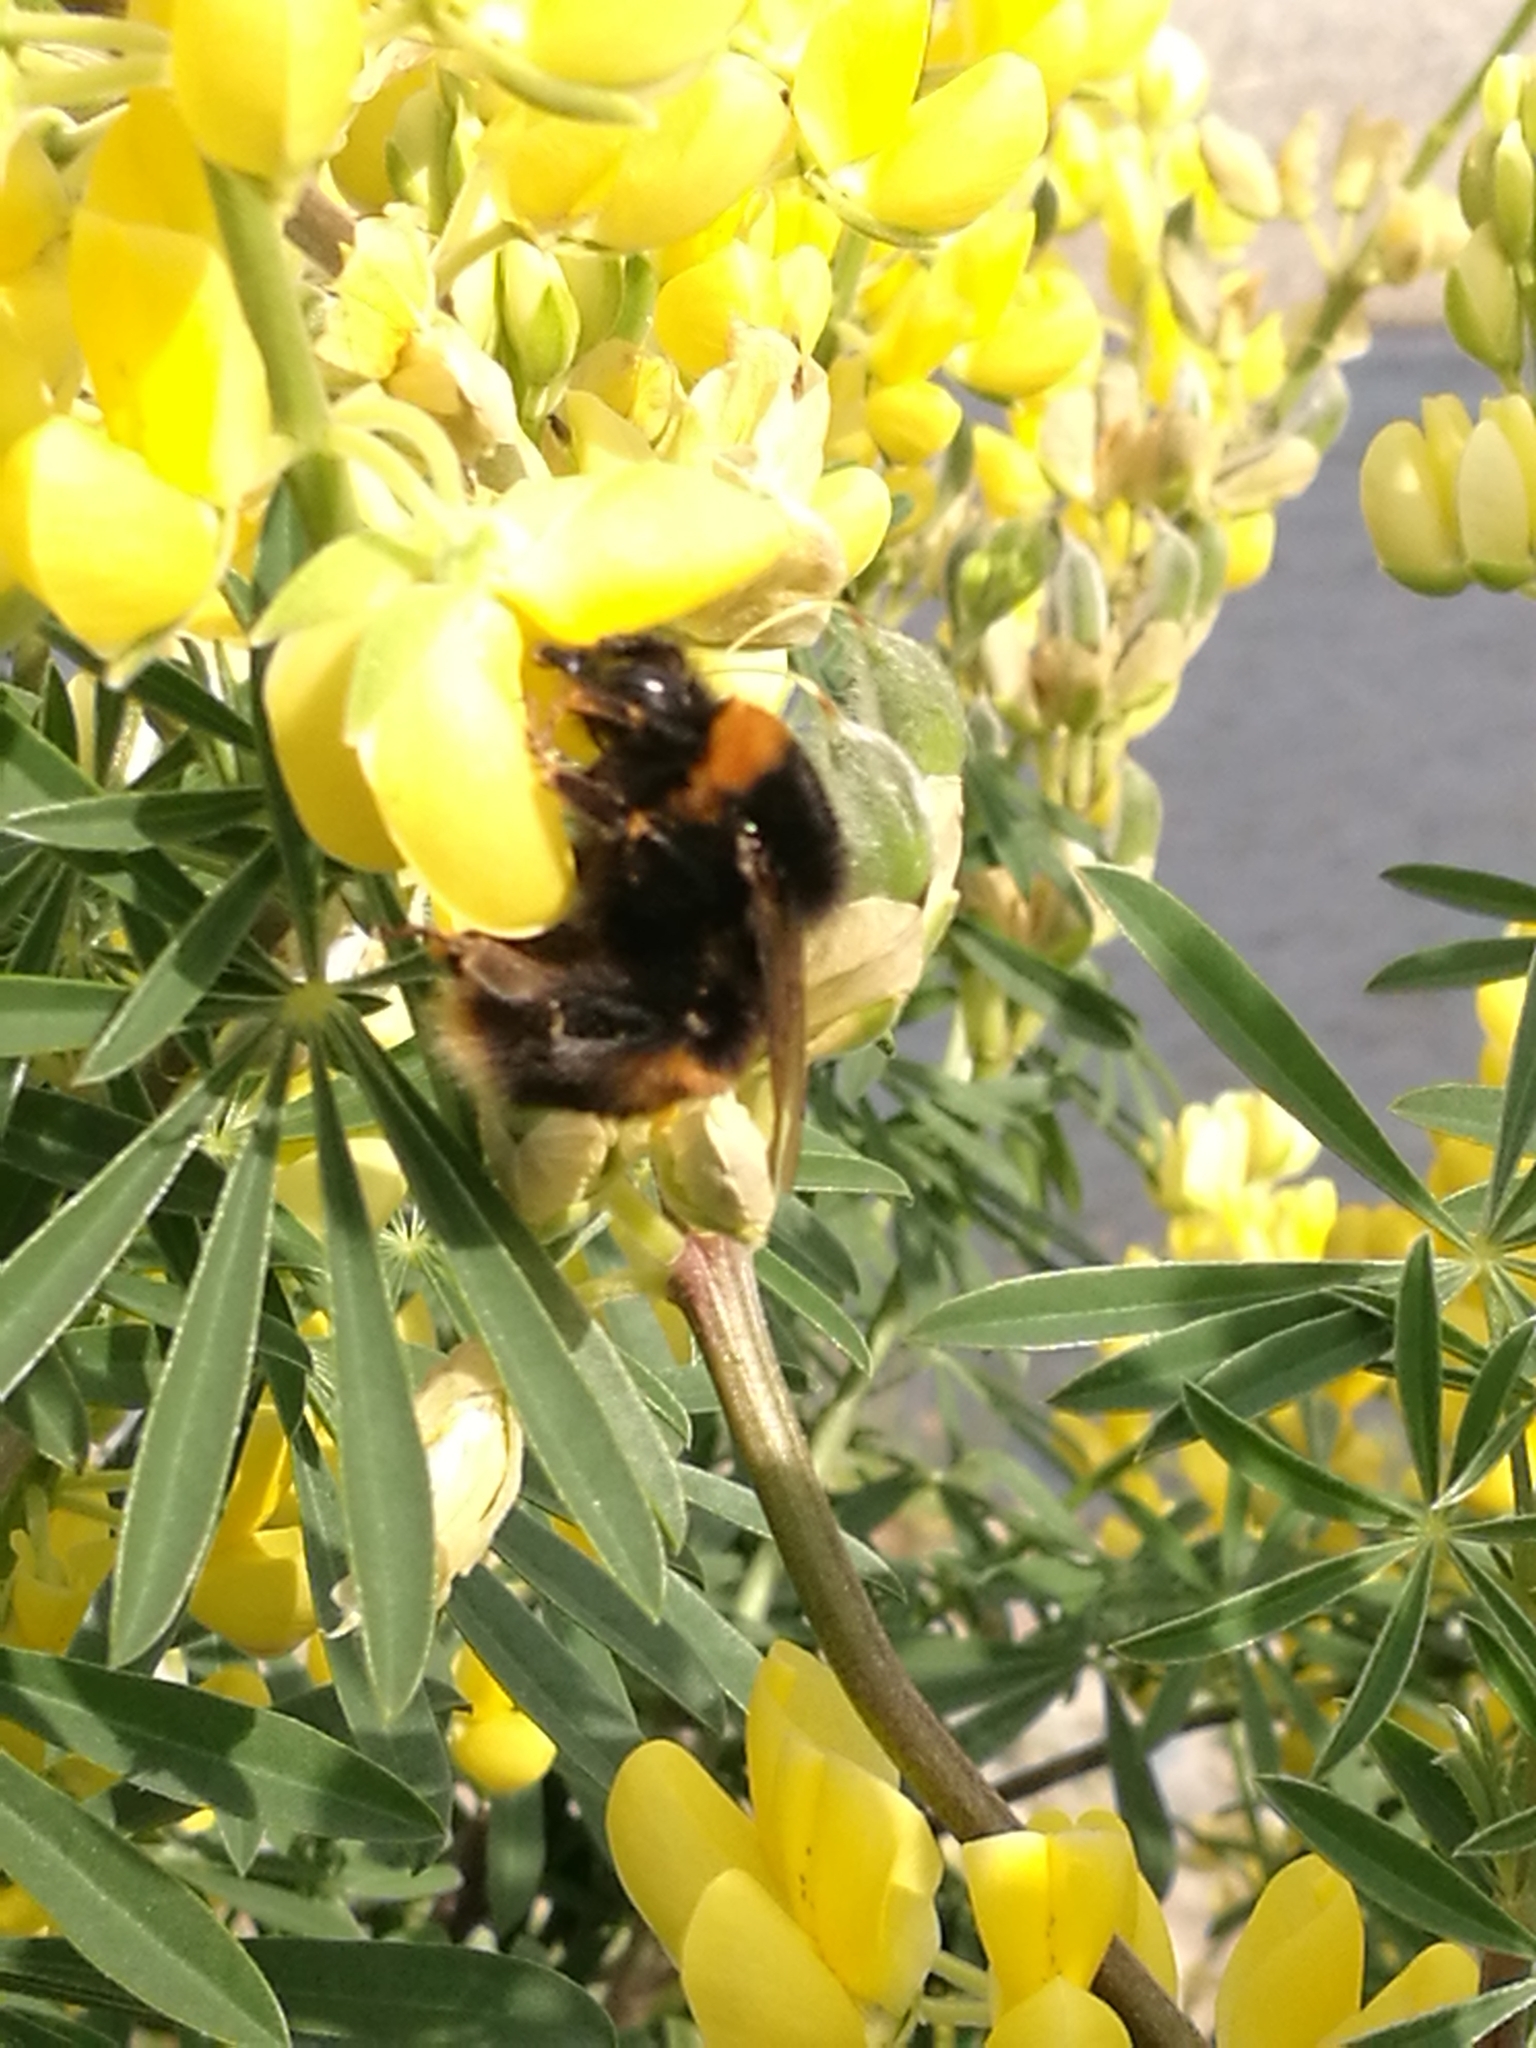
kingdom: Animalia
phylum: Arthropoda
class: Insecta
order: Hymenoptera
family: Apidae
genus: Bombus
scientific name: Bombus terrestris
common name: Buff-tailed bumblebee
